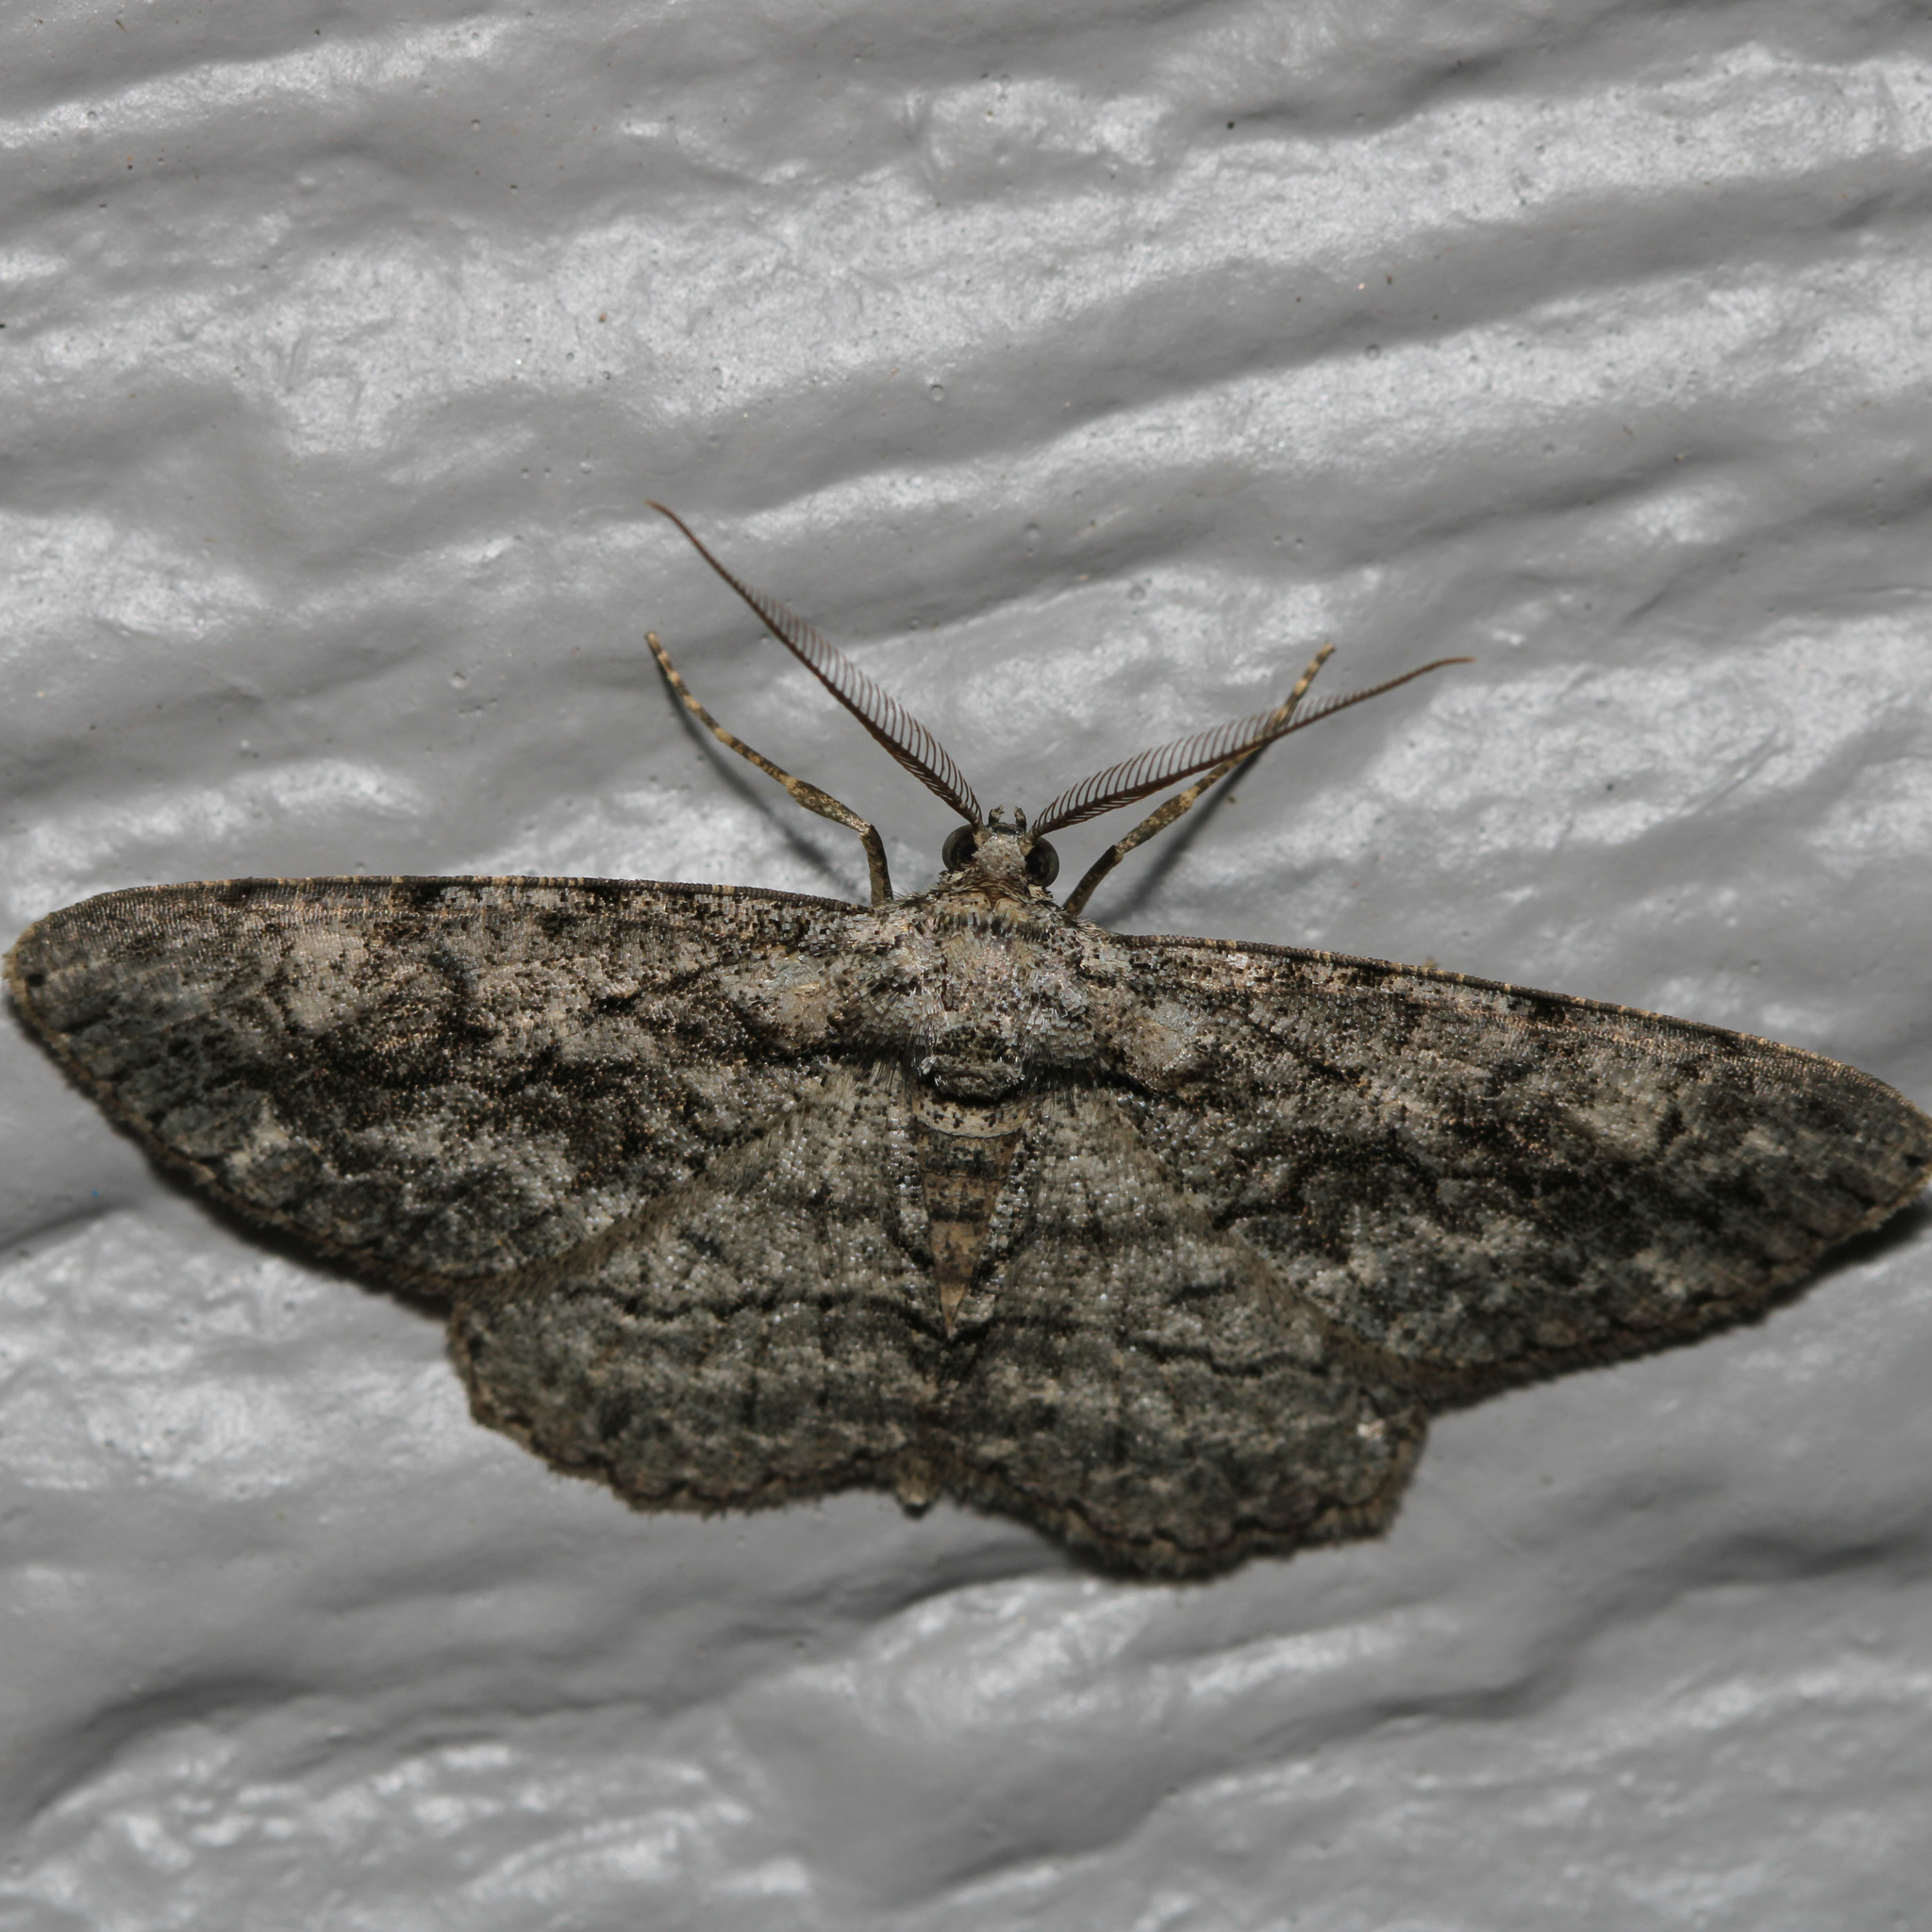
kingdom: Animalia
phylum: Arthropoda
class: Insecta
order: Lepidoptera
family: Geometridae
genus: Anavitrinella
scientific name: Anavitrinella pampinaria
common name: Common gray
